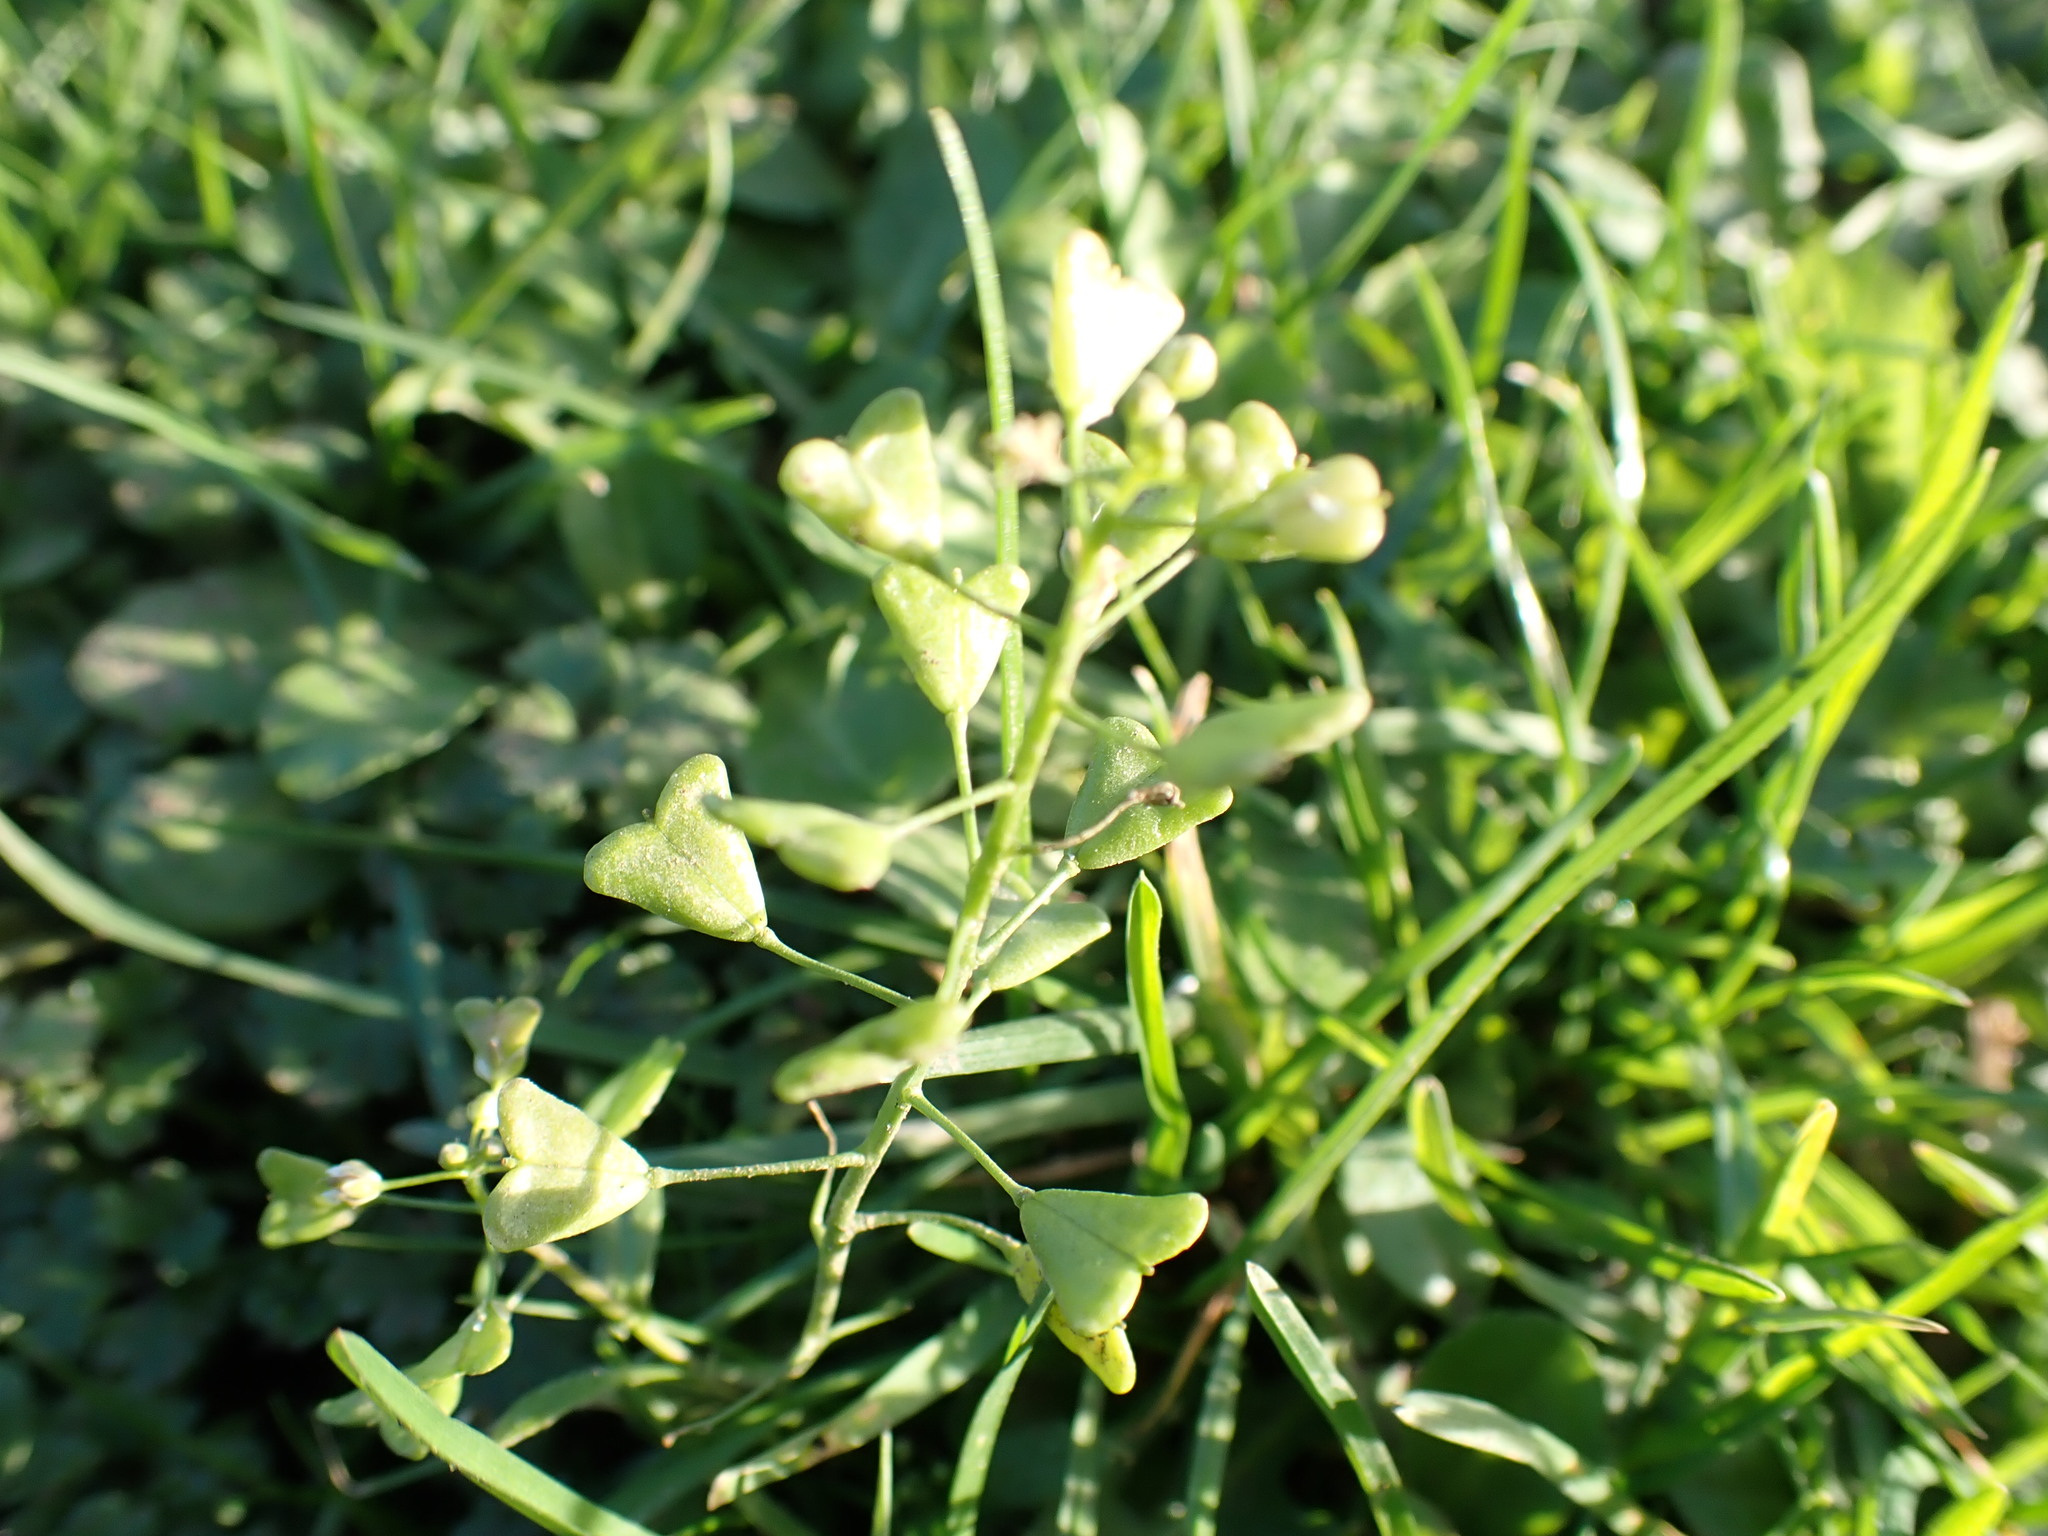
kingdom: Plantae
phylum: Tracheophyta
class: Magnoliopsida
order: Brassicales
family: Brassicaceae
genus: Capsella
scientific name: Capsella bursa-pastoris
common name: Shepherd's purse
